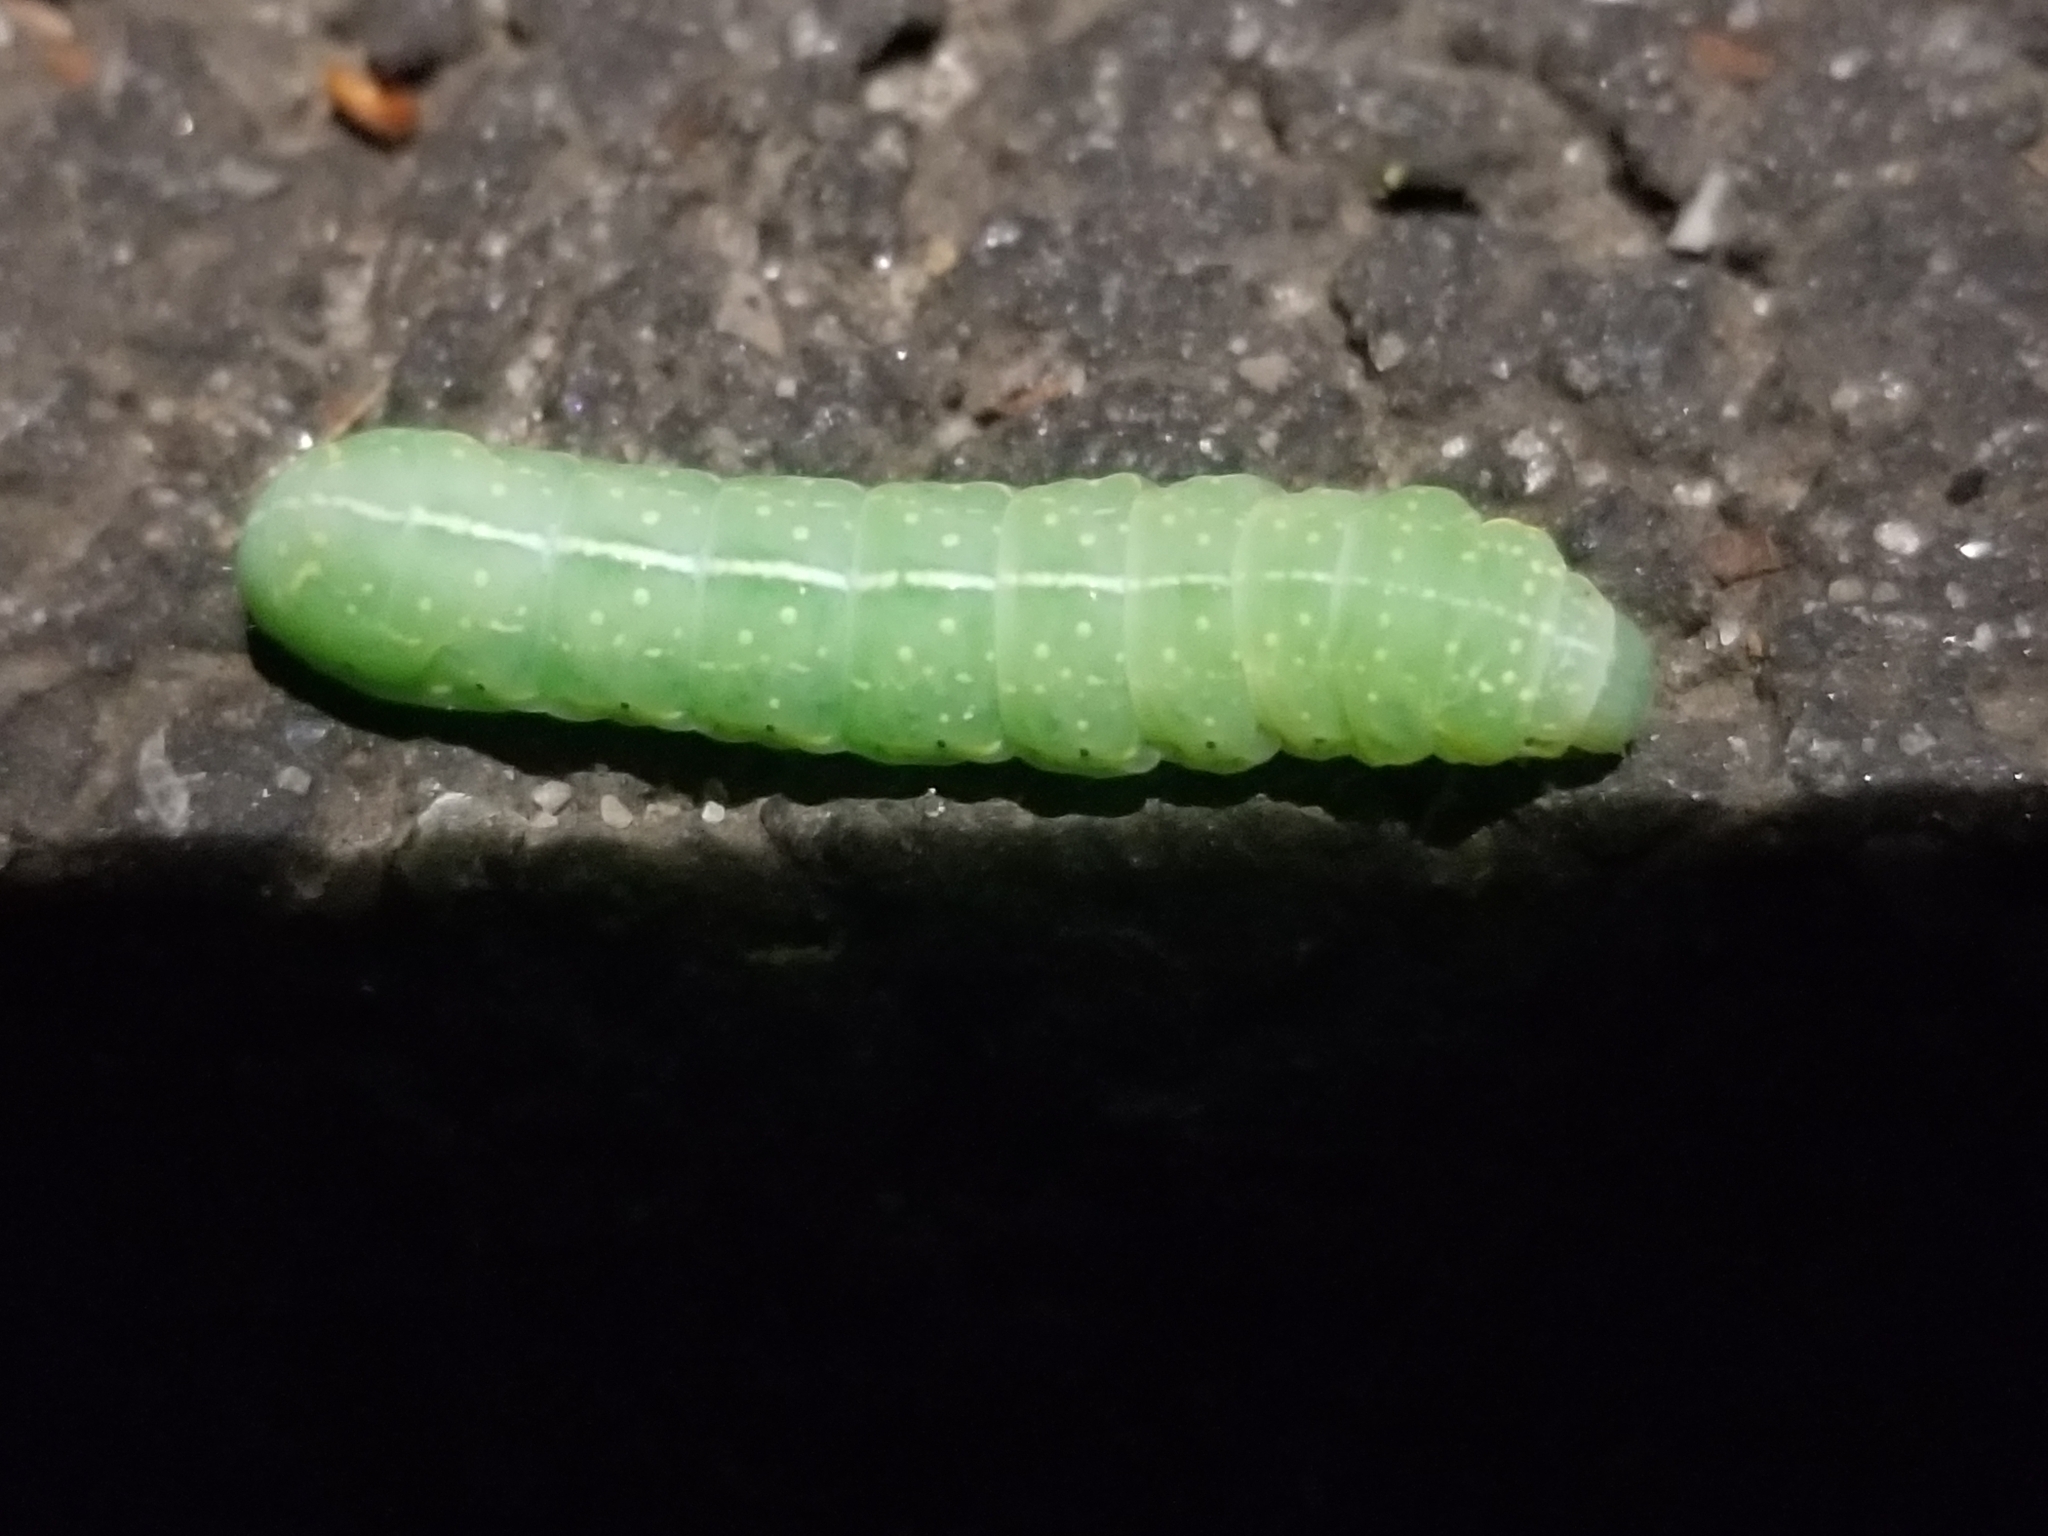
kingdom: Animalia
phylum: Arthropoda
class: Insecta
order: Lepidoptera
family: Noctuidae
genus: Amphipyra
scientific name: Amphipyra pyramidoides
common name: American copper underwing
